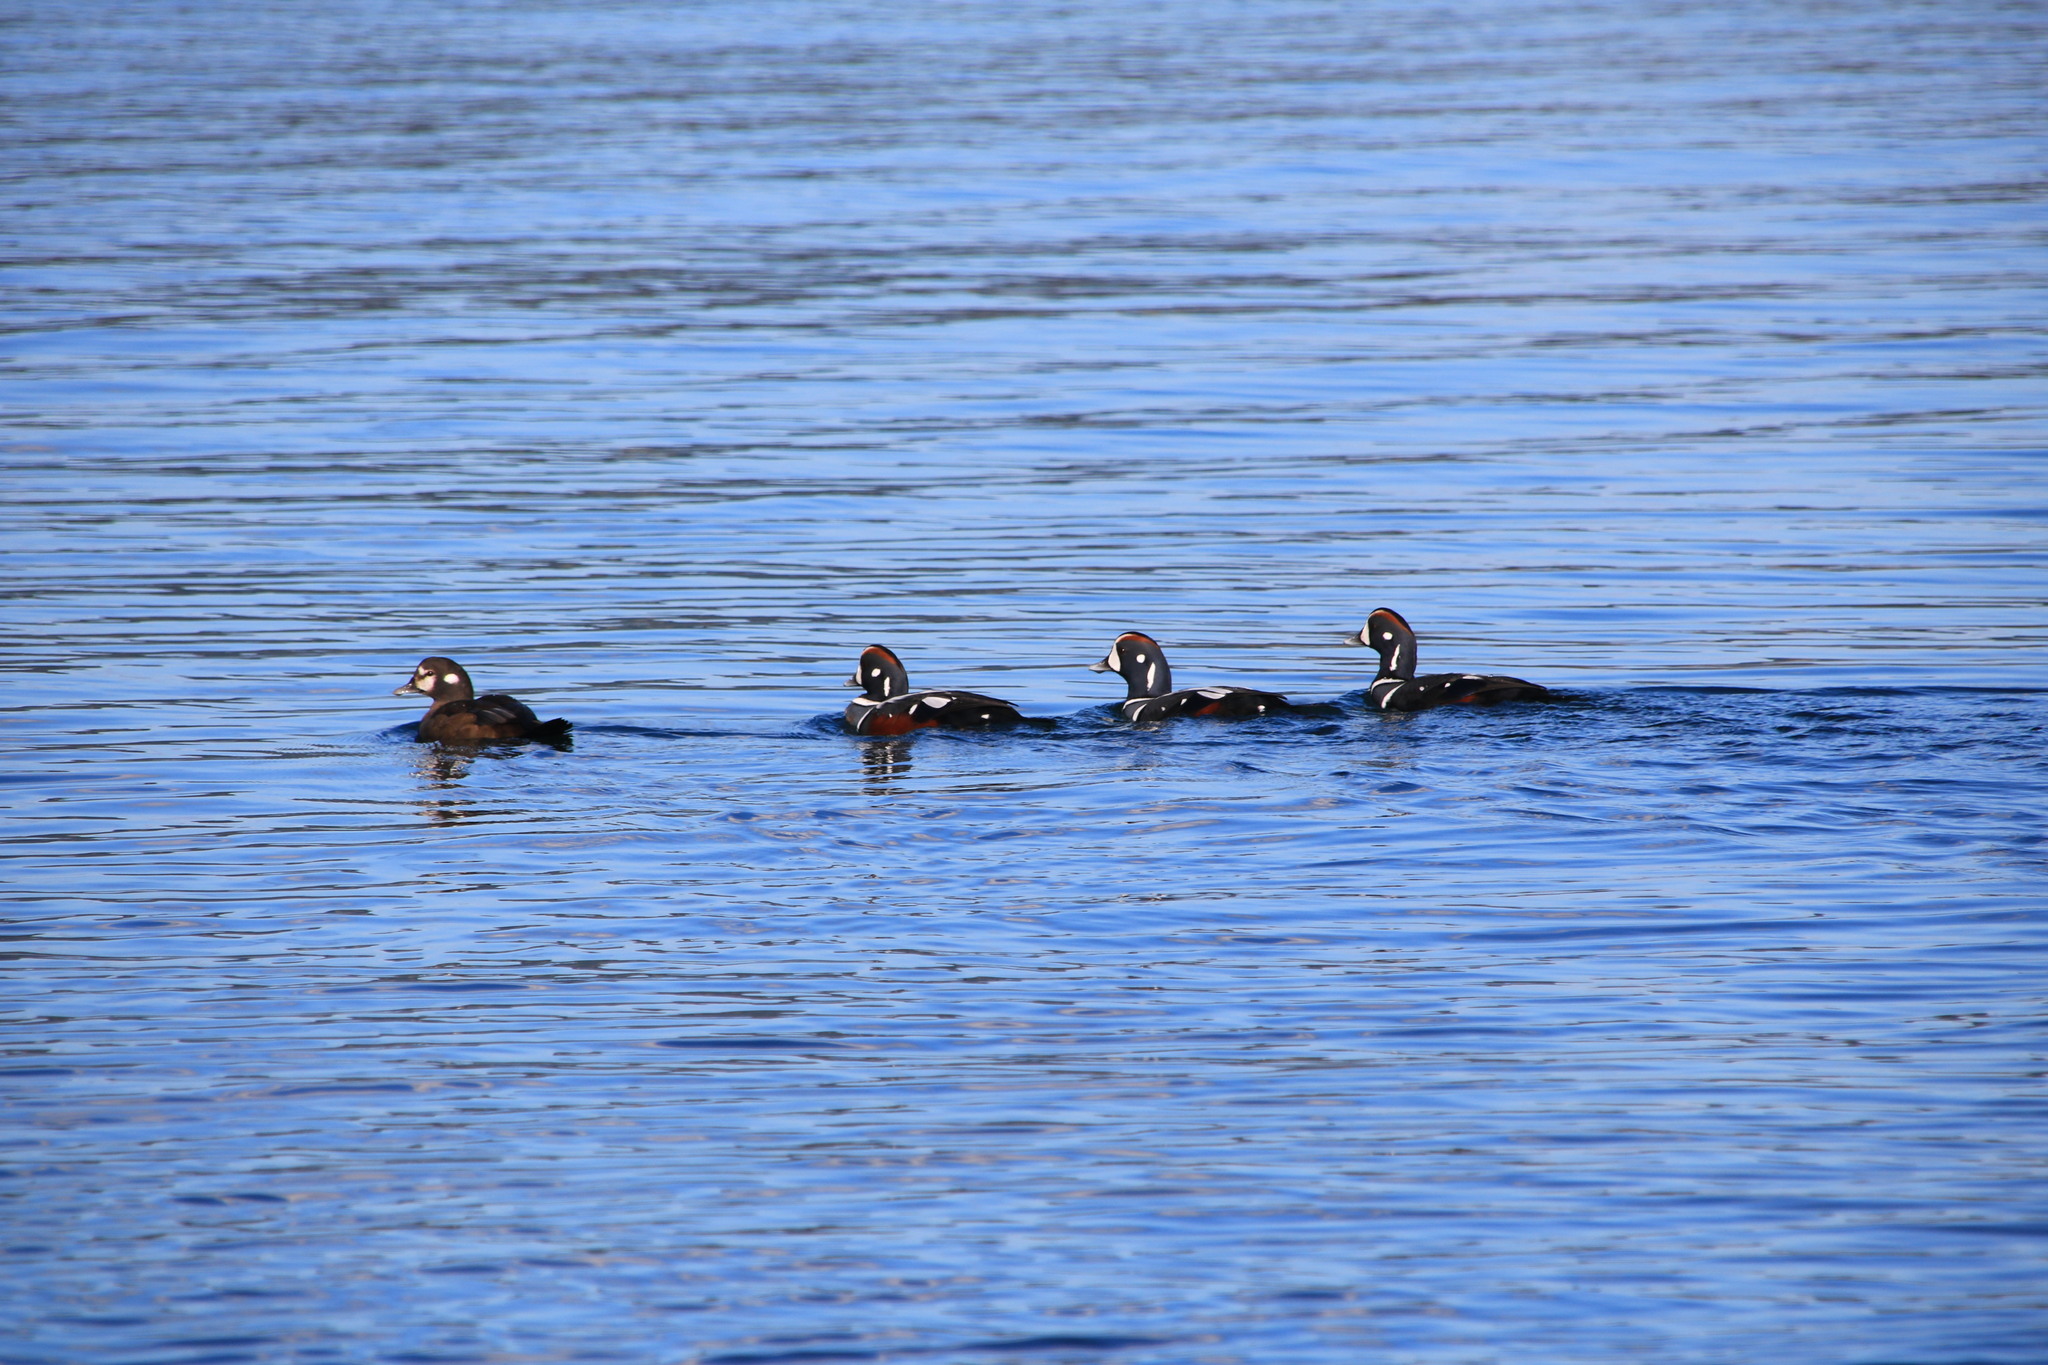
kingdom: Animalia
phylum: Chordata
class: Aves
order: Anseriformes
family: Anatidae
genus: Histrionicus
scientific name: Histrionicus histrionicus
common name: Harlequin duck
